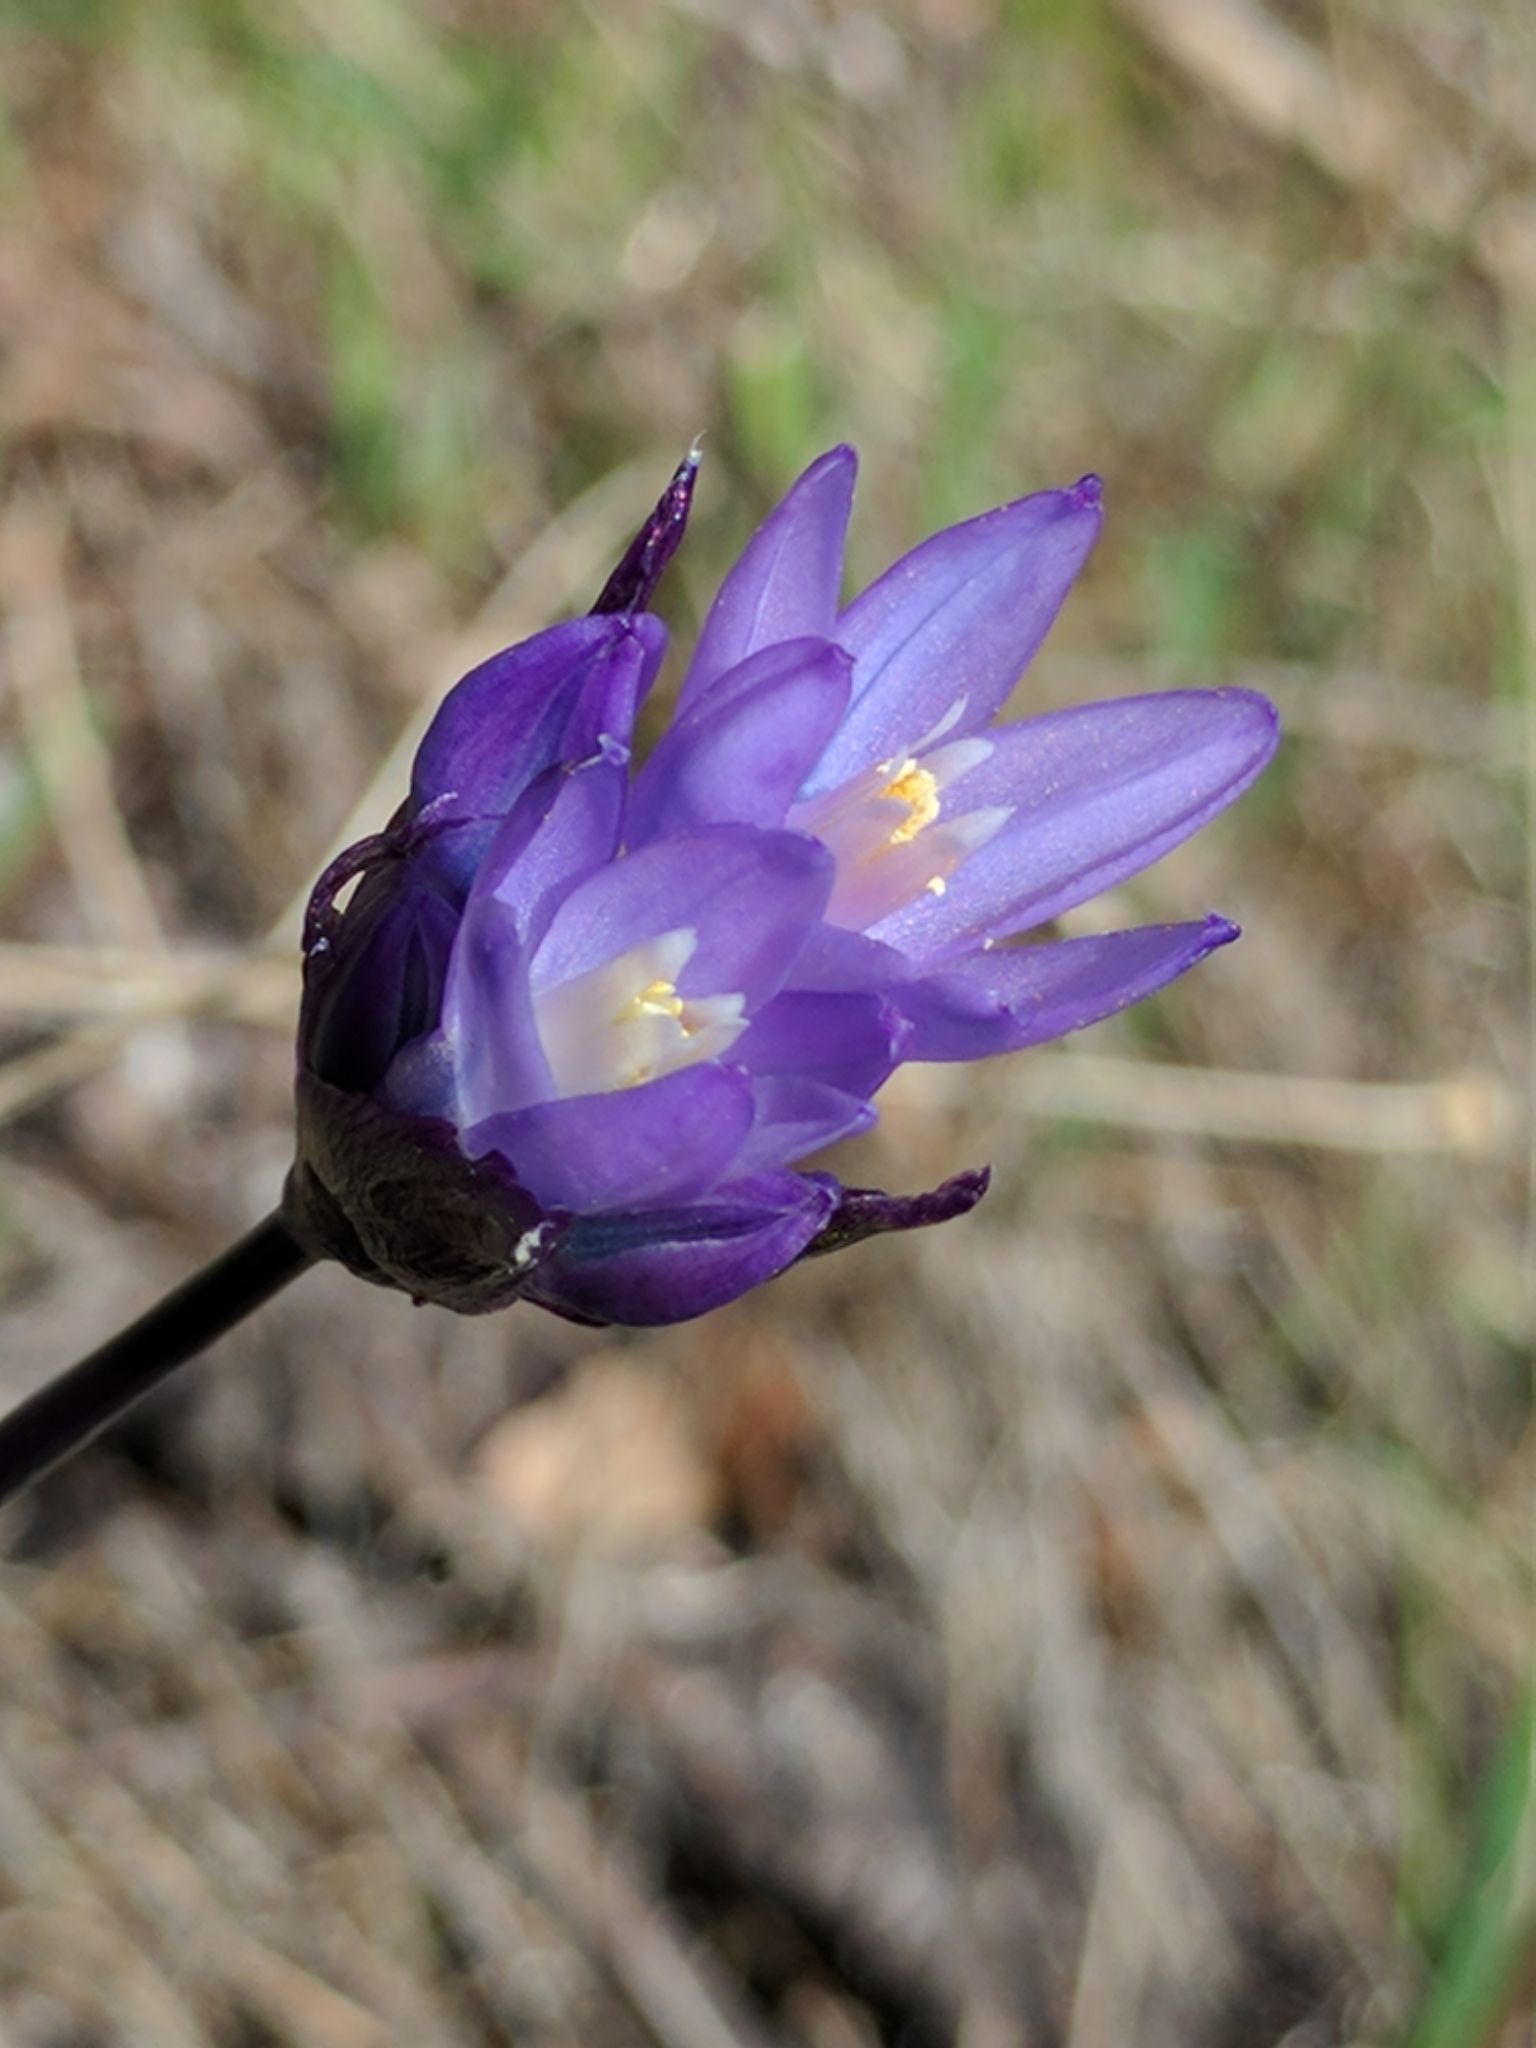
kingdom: Plantae
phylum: Tracheophyta
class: Liliopsida
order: Asparagales
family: Asparagaceae
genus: Dipterostemon
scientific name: Dipterostemon capitatus
